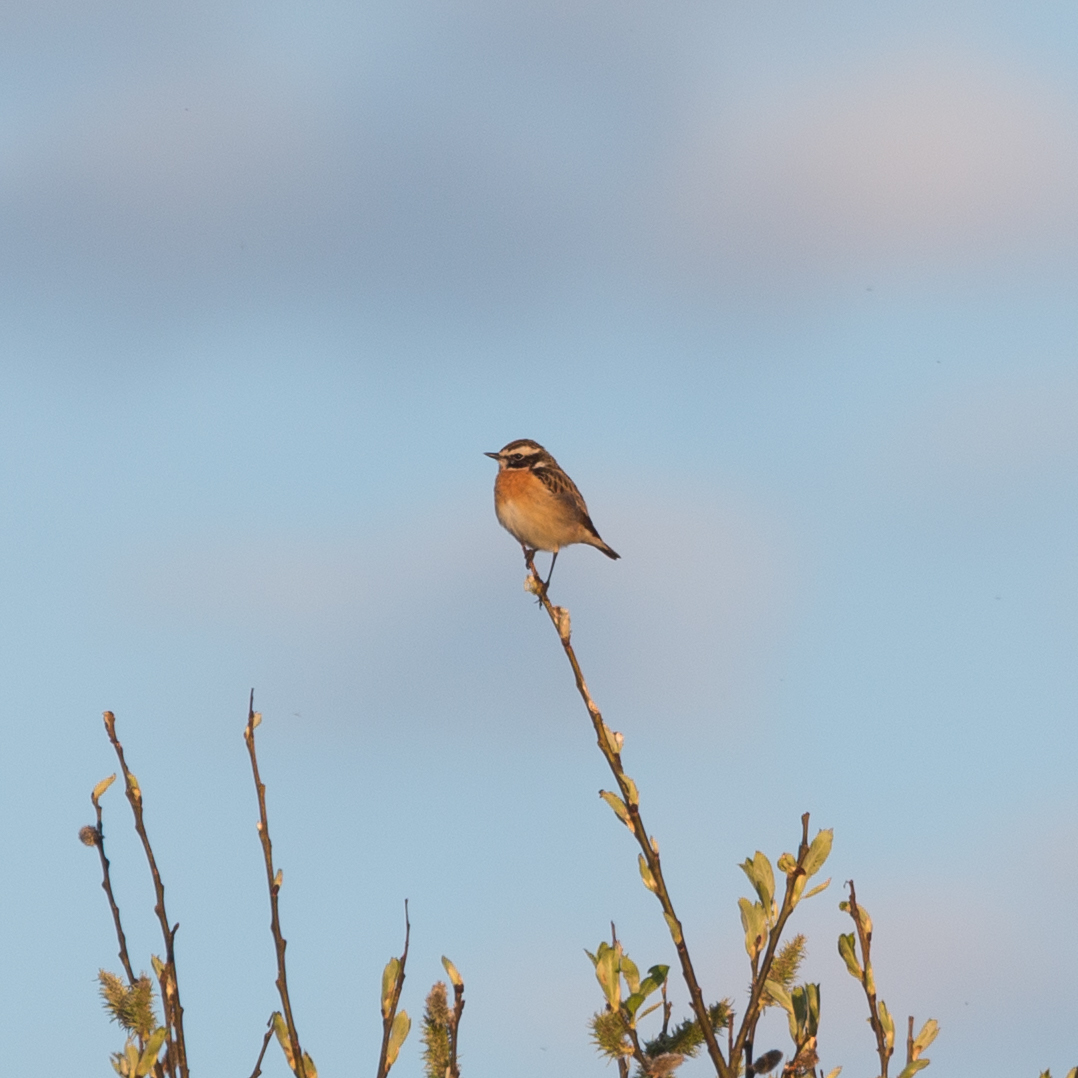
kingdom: Animalia
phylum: Chordata
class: Aves
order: Passeriformes
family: Muscicapidae
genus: Saxicola
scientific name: Saxicola rubetra
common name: Whinchat
